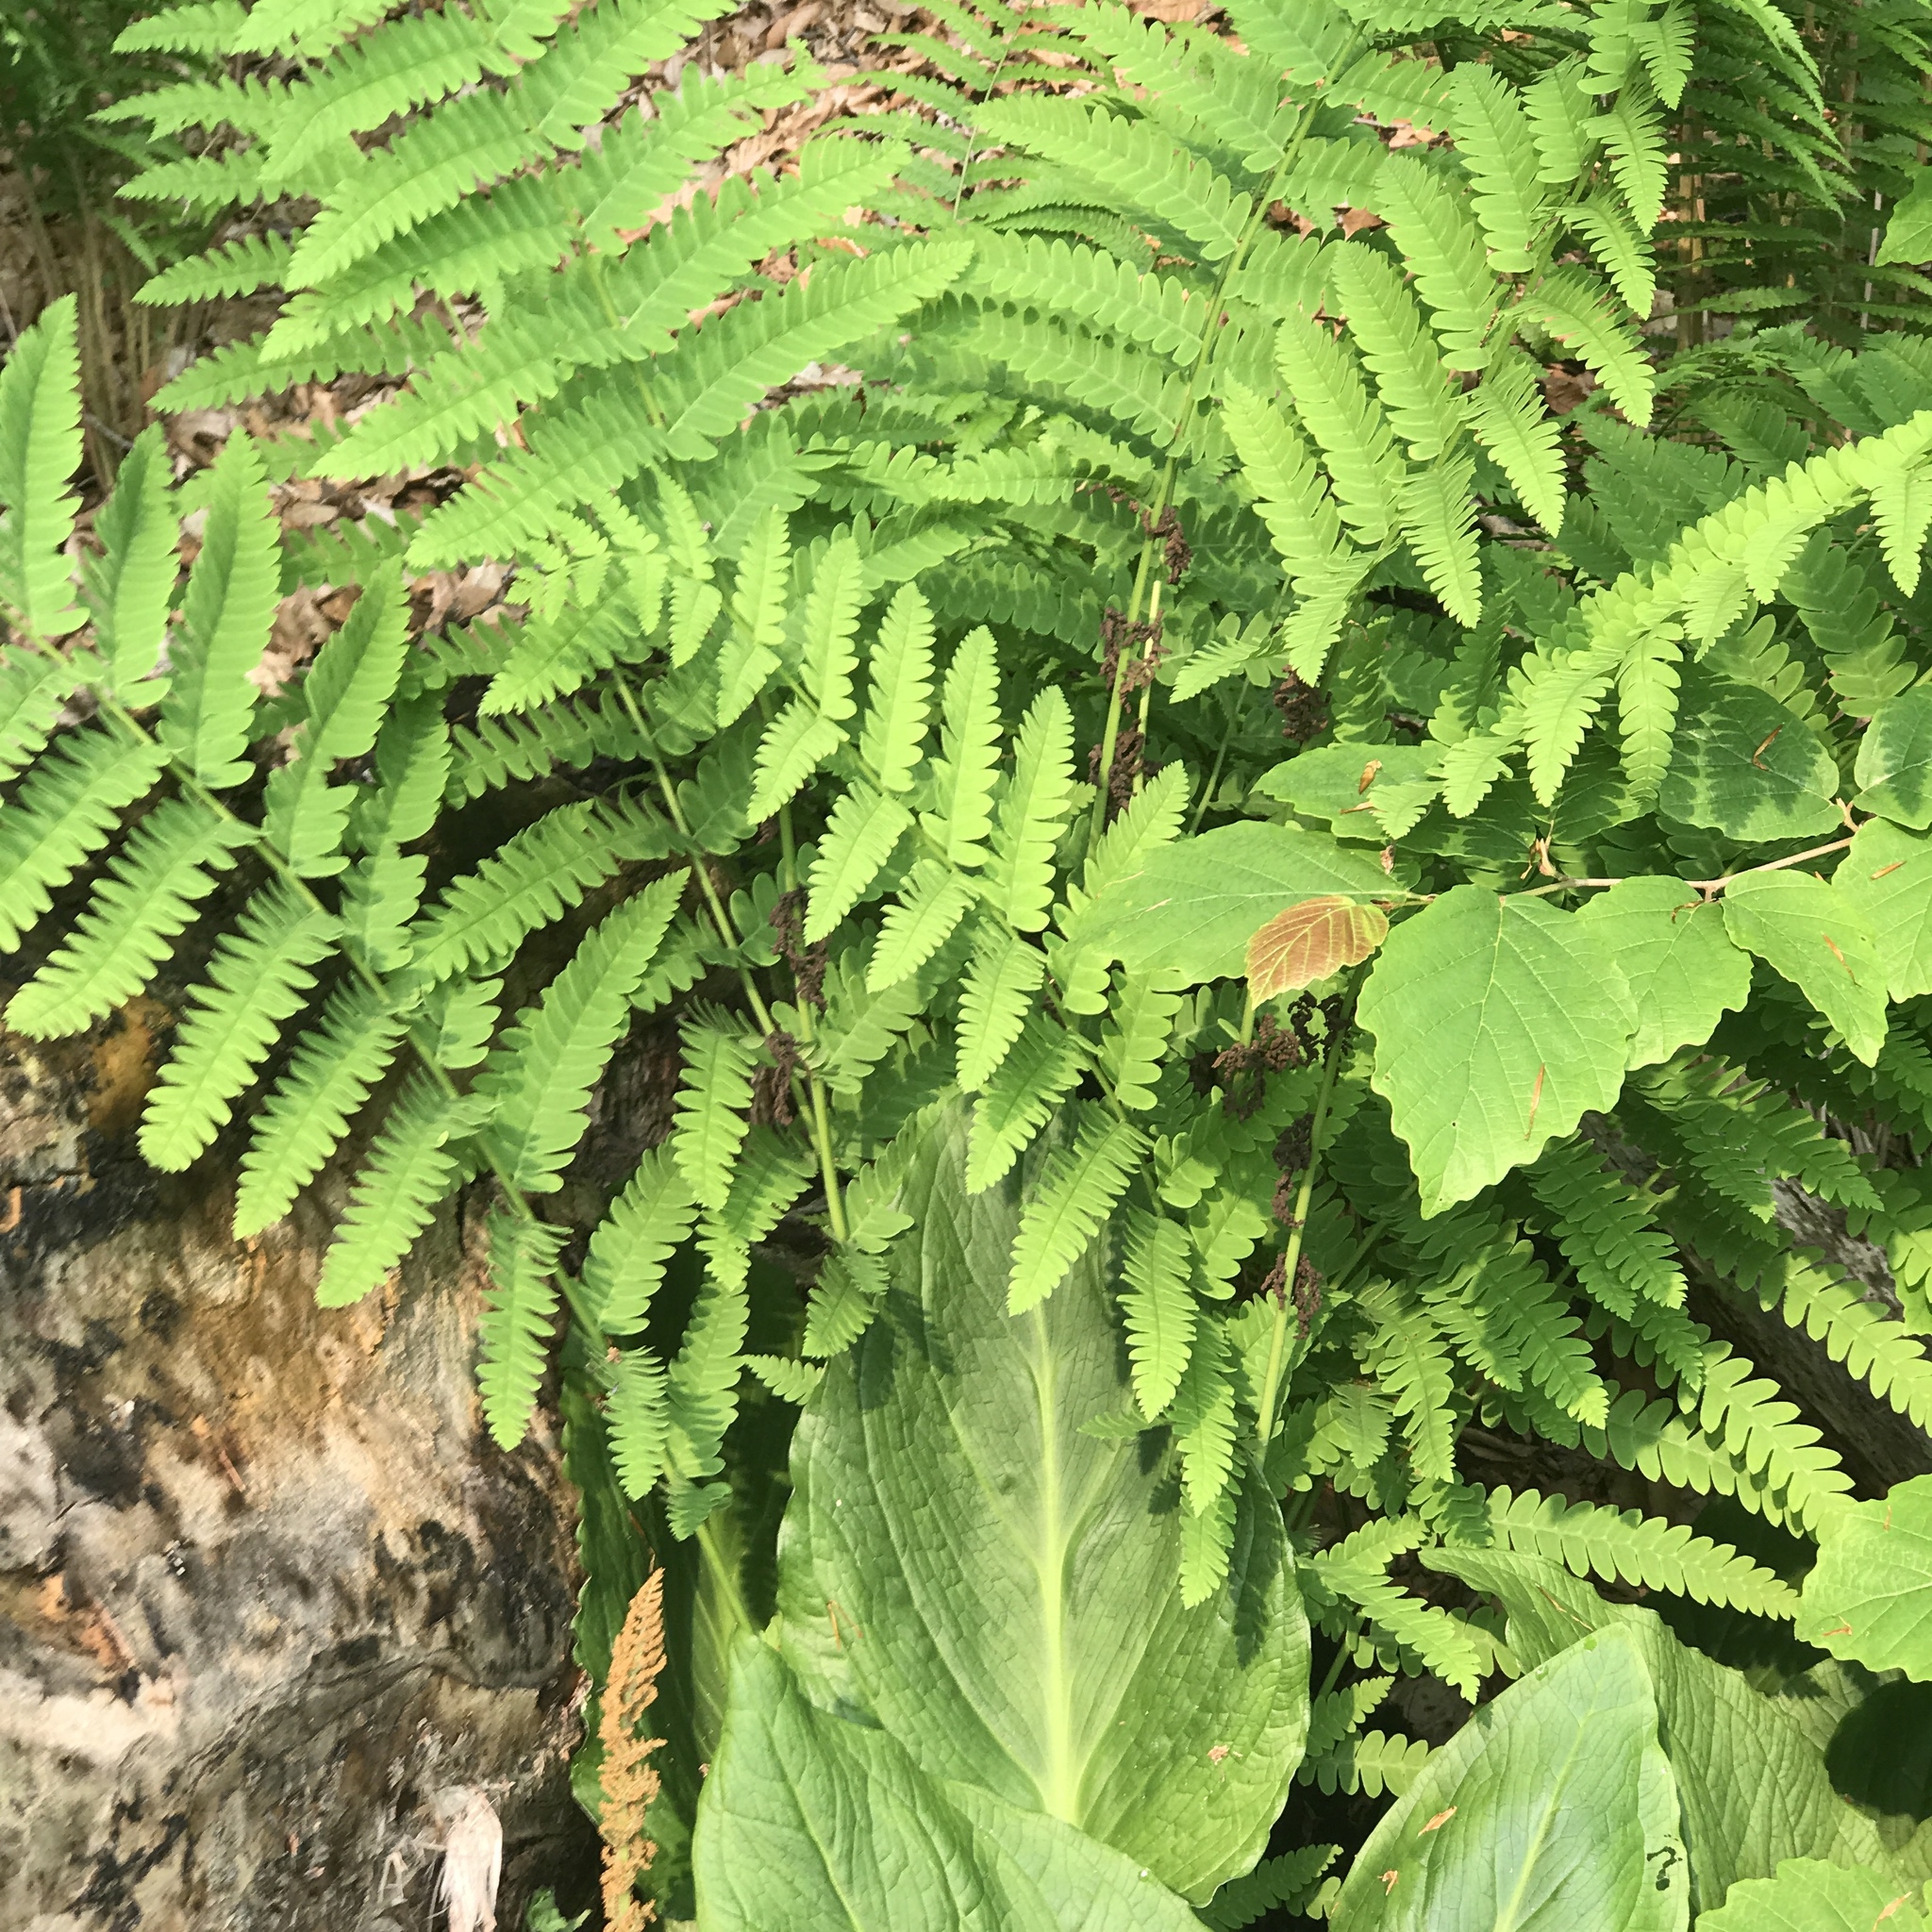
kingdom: Plantae
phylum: Tracheophyta
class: Polypodiopsida
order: Osmundales
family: Osmundaceae
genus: Claytosmunda
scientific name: Claytosmunda claytoniana
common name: Clayton's fern
